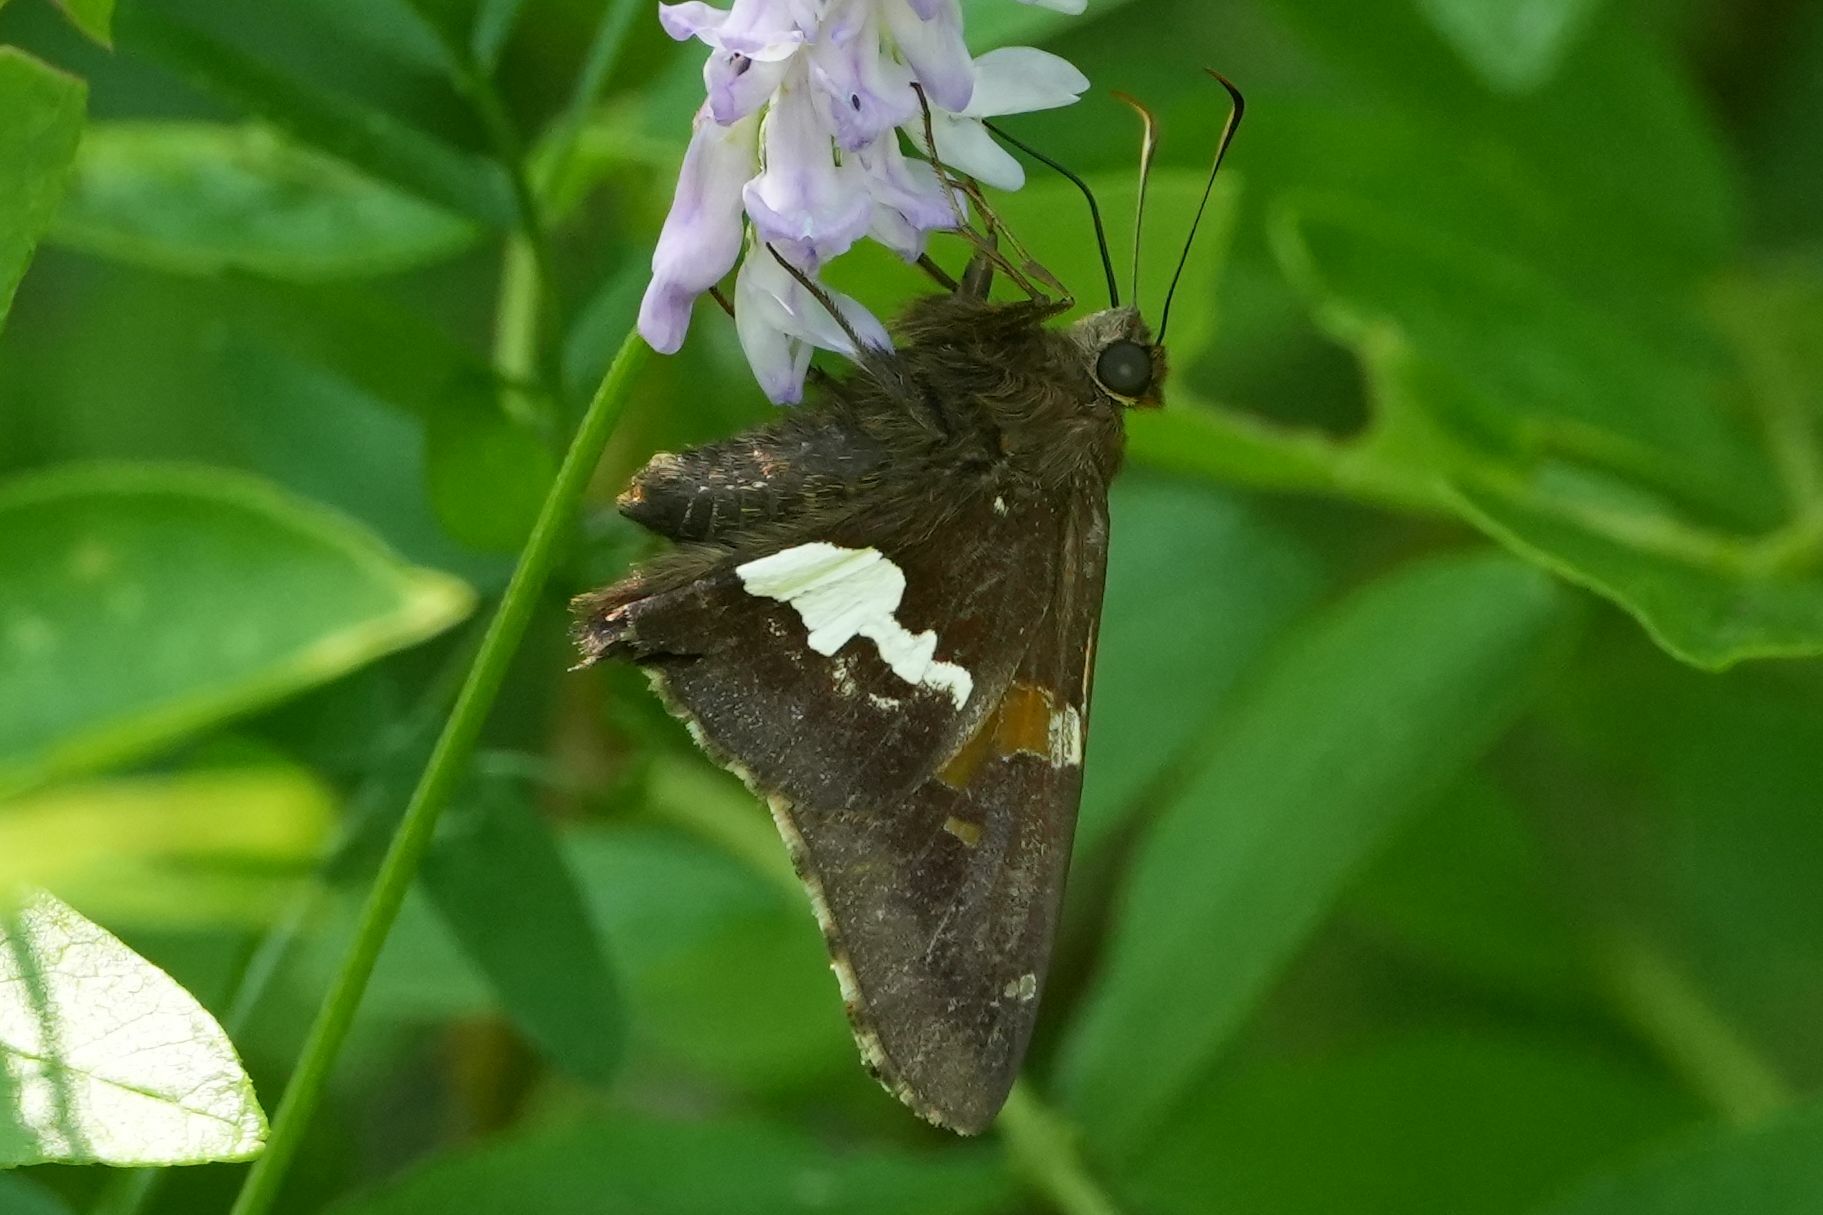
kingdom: Animalia
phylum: Arthropoda
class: Insecta
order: Lepidoptera
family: Hesperiidae
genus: Epargyreus
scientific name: Epargyreus clarus
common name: Silver-spotted skipper
